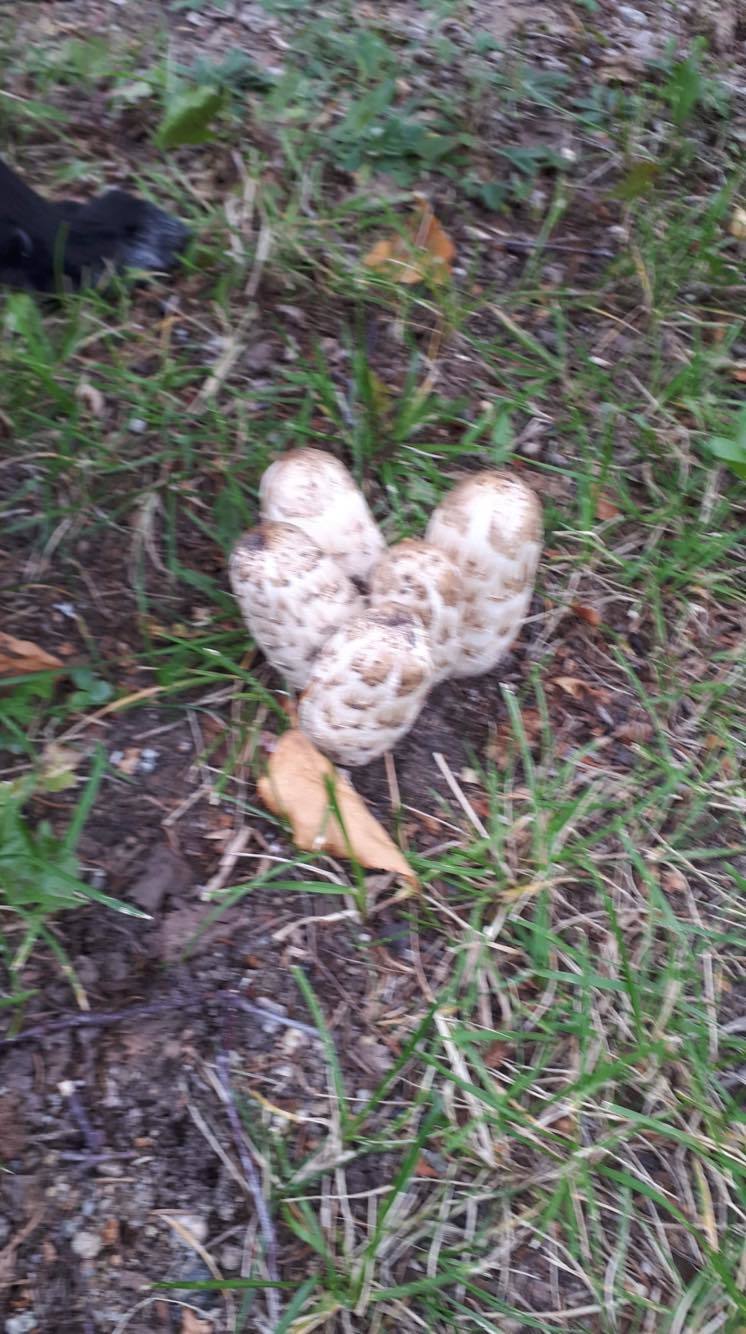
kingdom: Fungi
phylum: Basidiomycota
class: Agaricomycetes
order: Agaricales
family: Agaricaceae
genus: Coprinus
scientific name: Coprinus comatus
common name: Lawyer's wig
